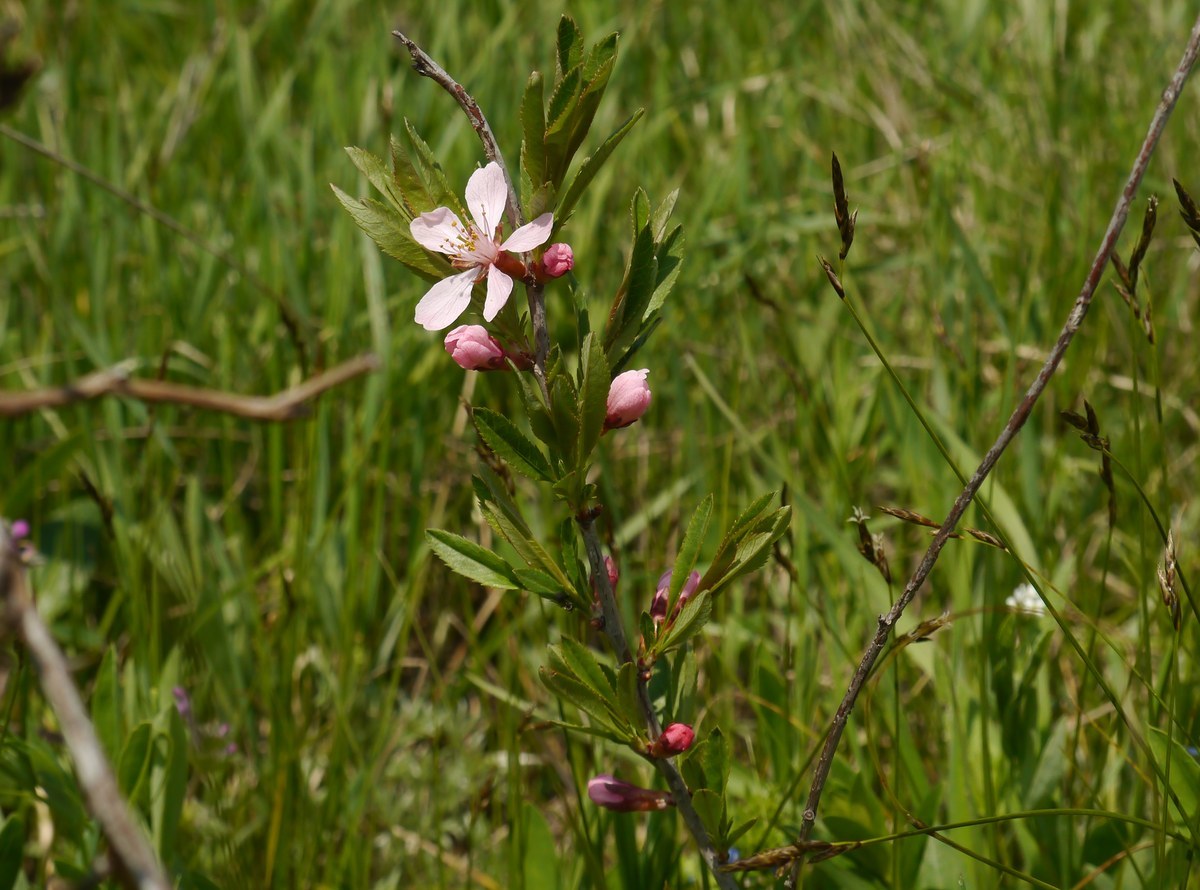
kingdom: Plantae
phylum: Tracheophyta
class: Magnoliopsida
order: Rosales
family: Rosaceae
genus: Prunus
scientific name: Prunus tenella
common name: Dwarf russian almond
